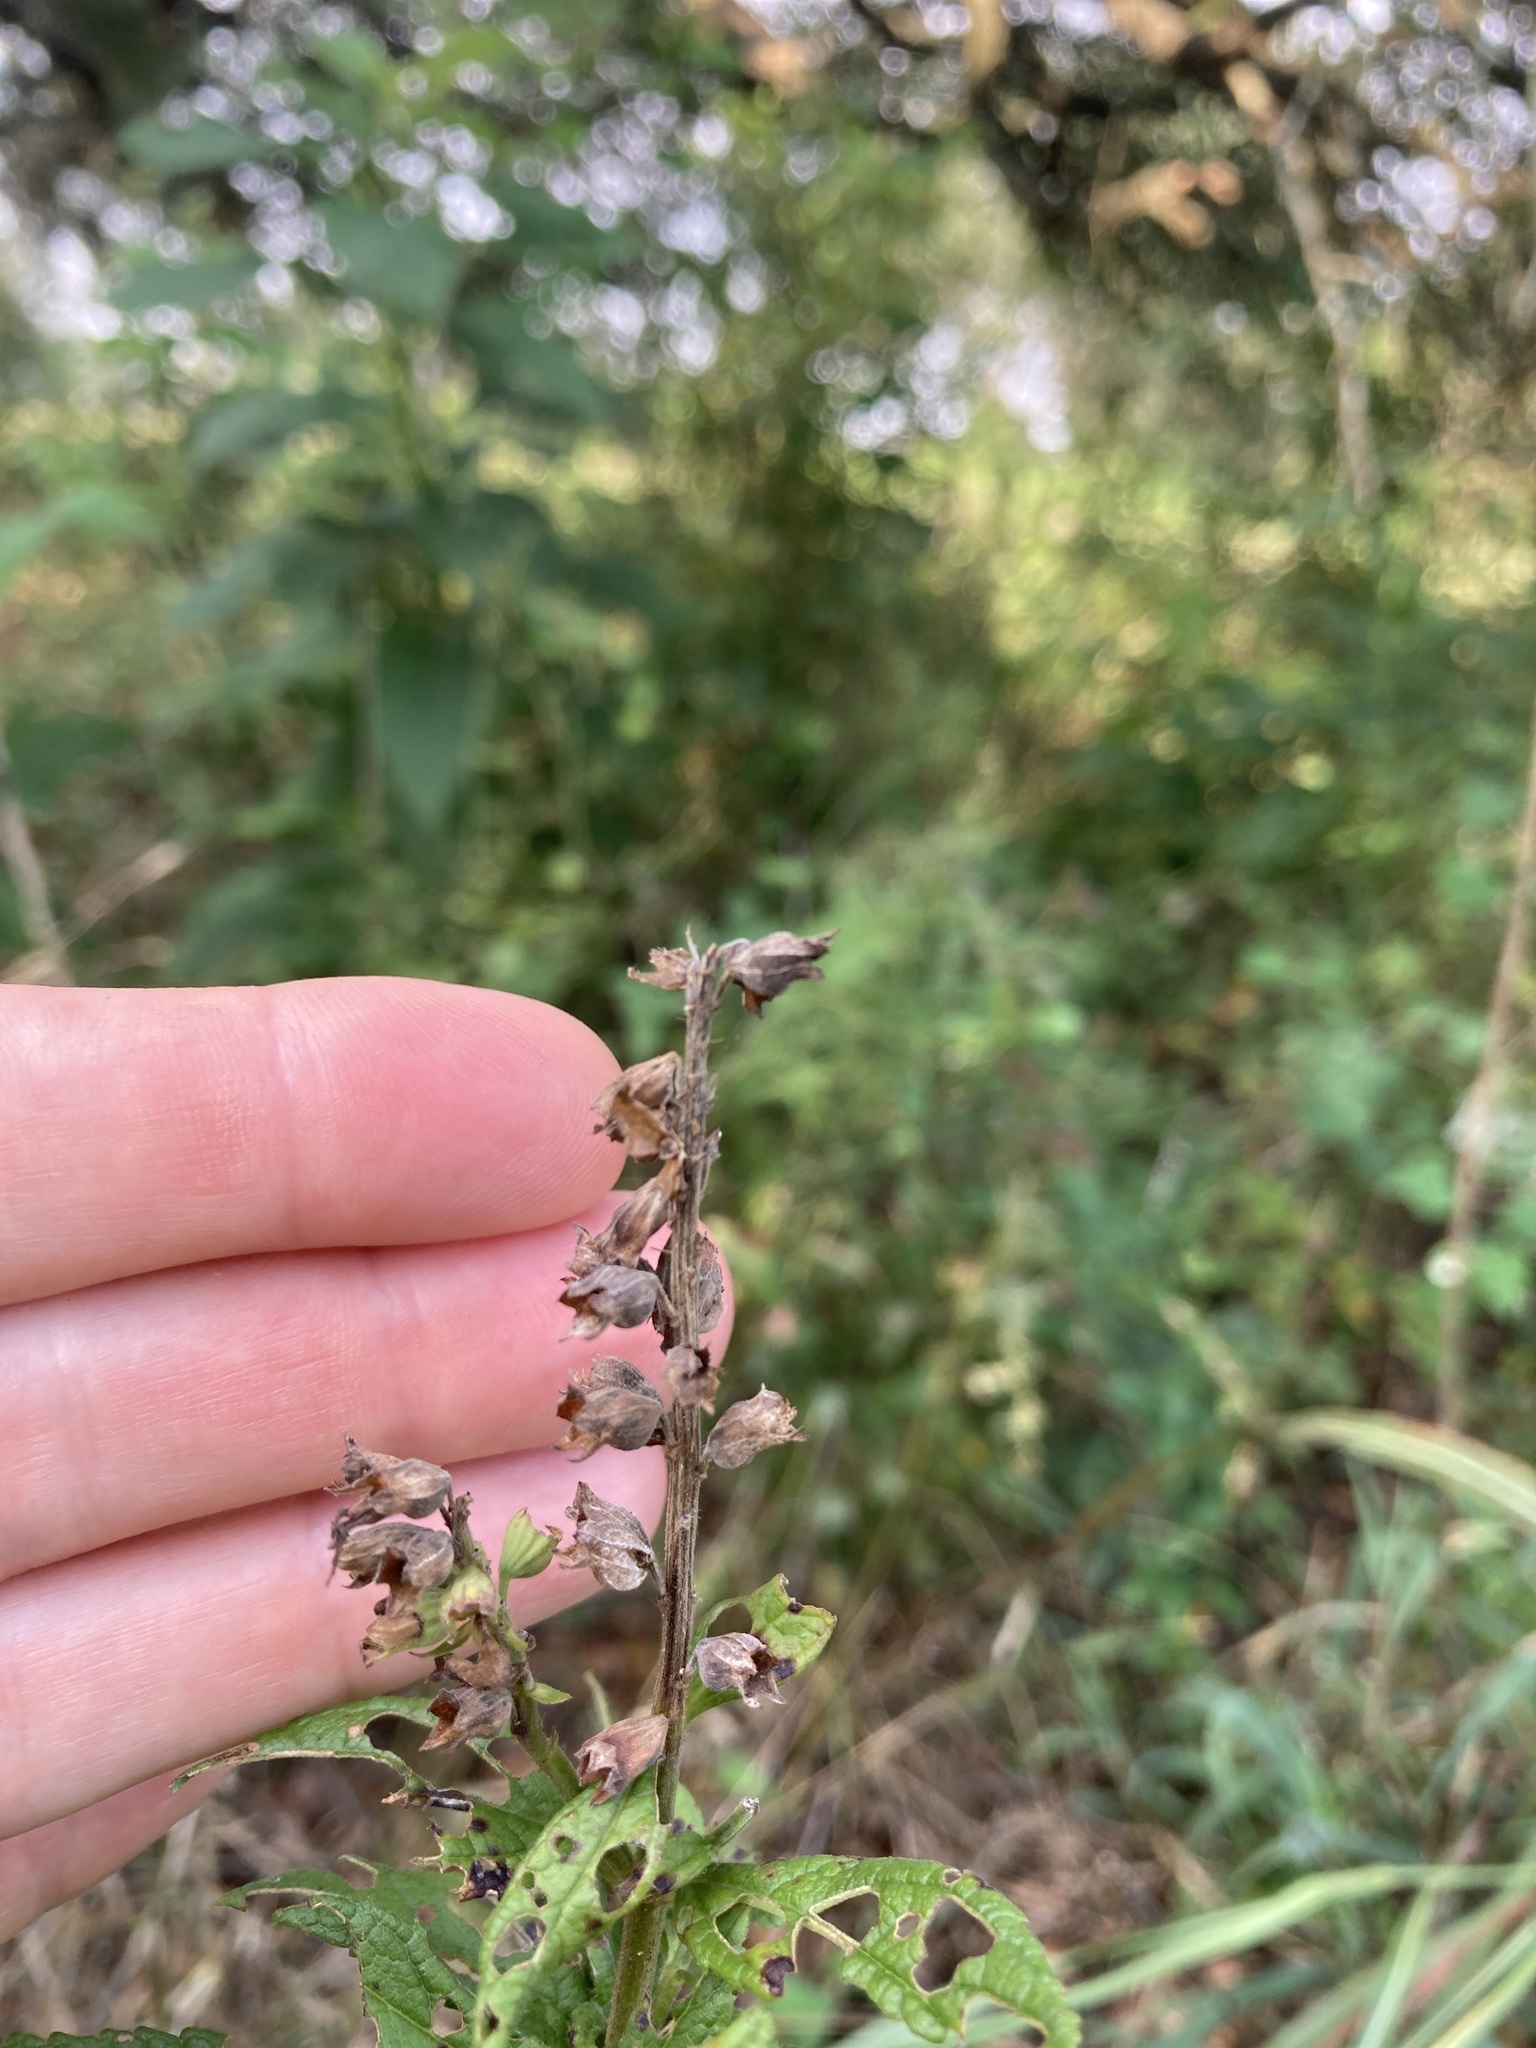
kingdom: Plantae
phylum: Tracheophyta
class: Magnoliopsida
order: Lamiales
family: Lamiaceae
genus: Teucrium
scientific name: Teucrium canadense
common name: American germander
